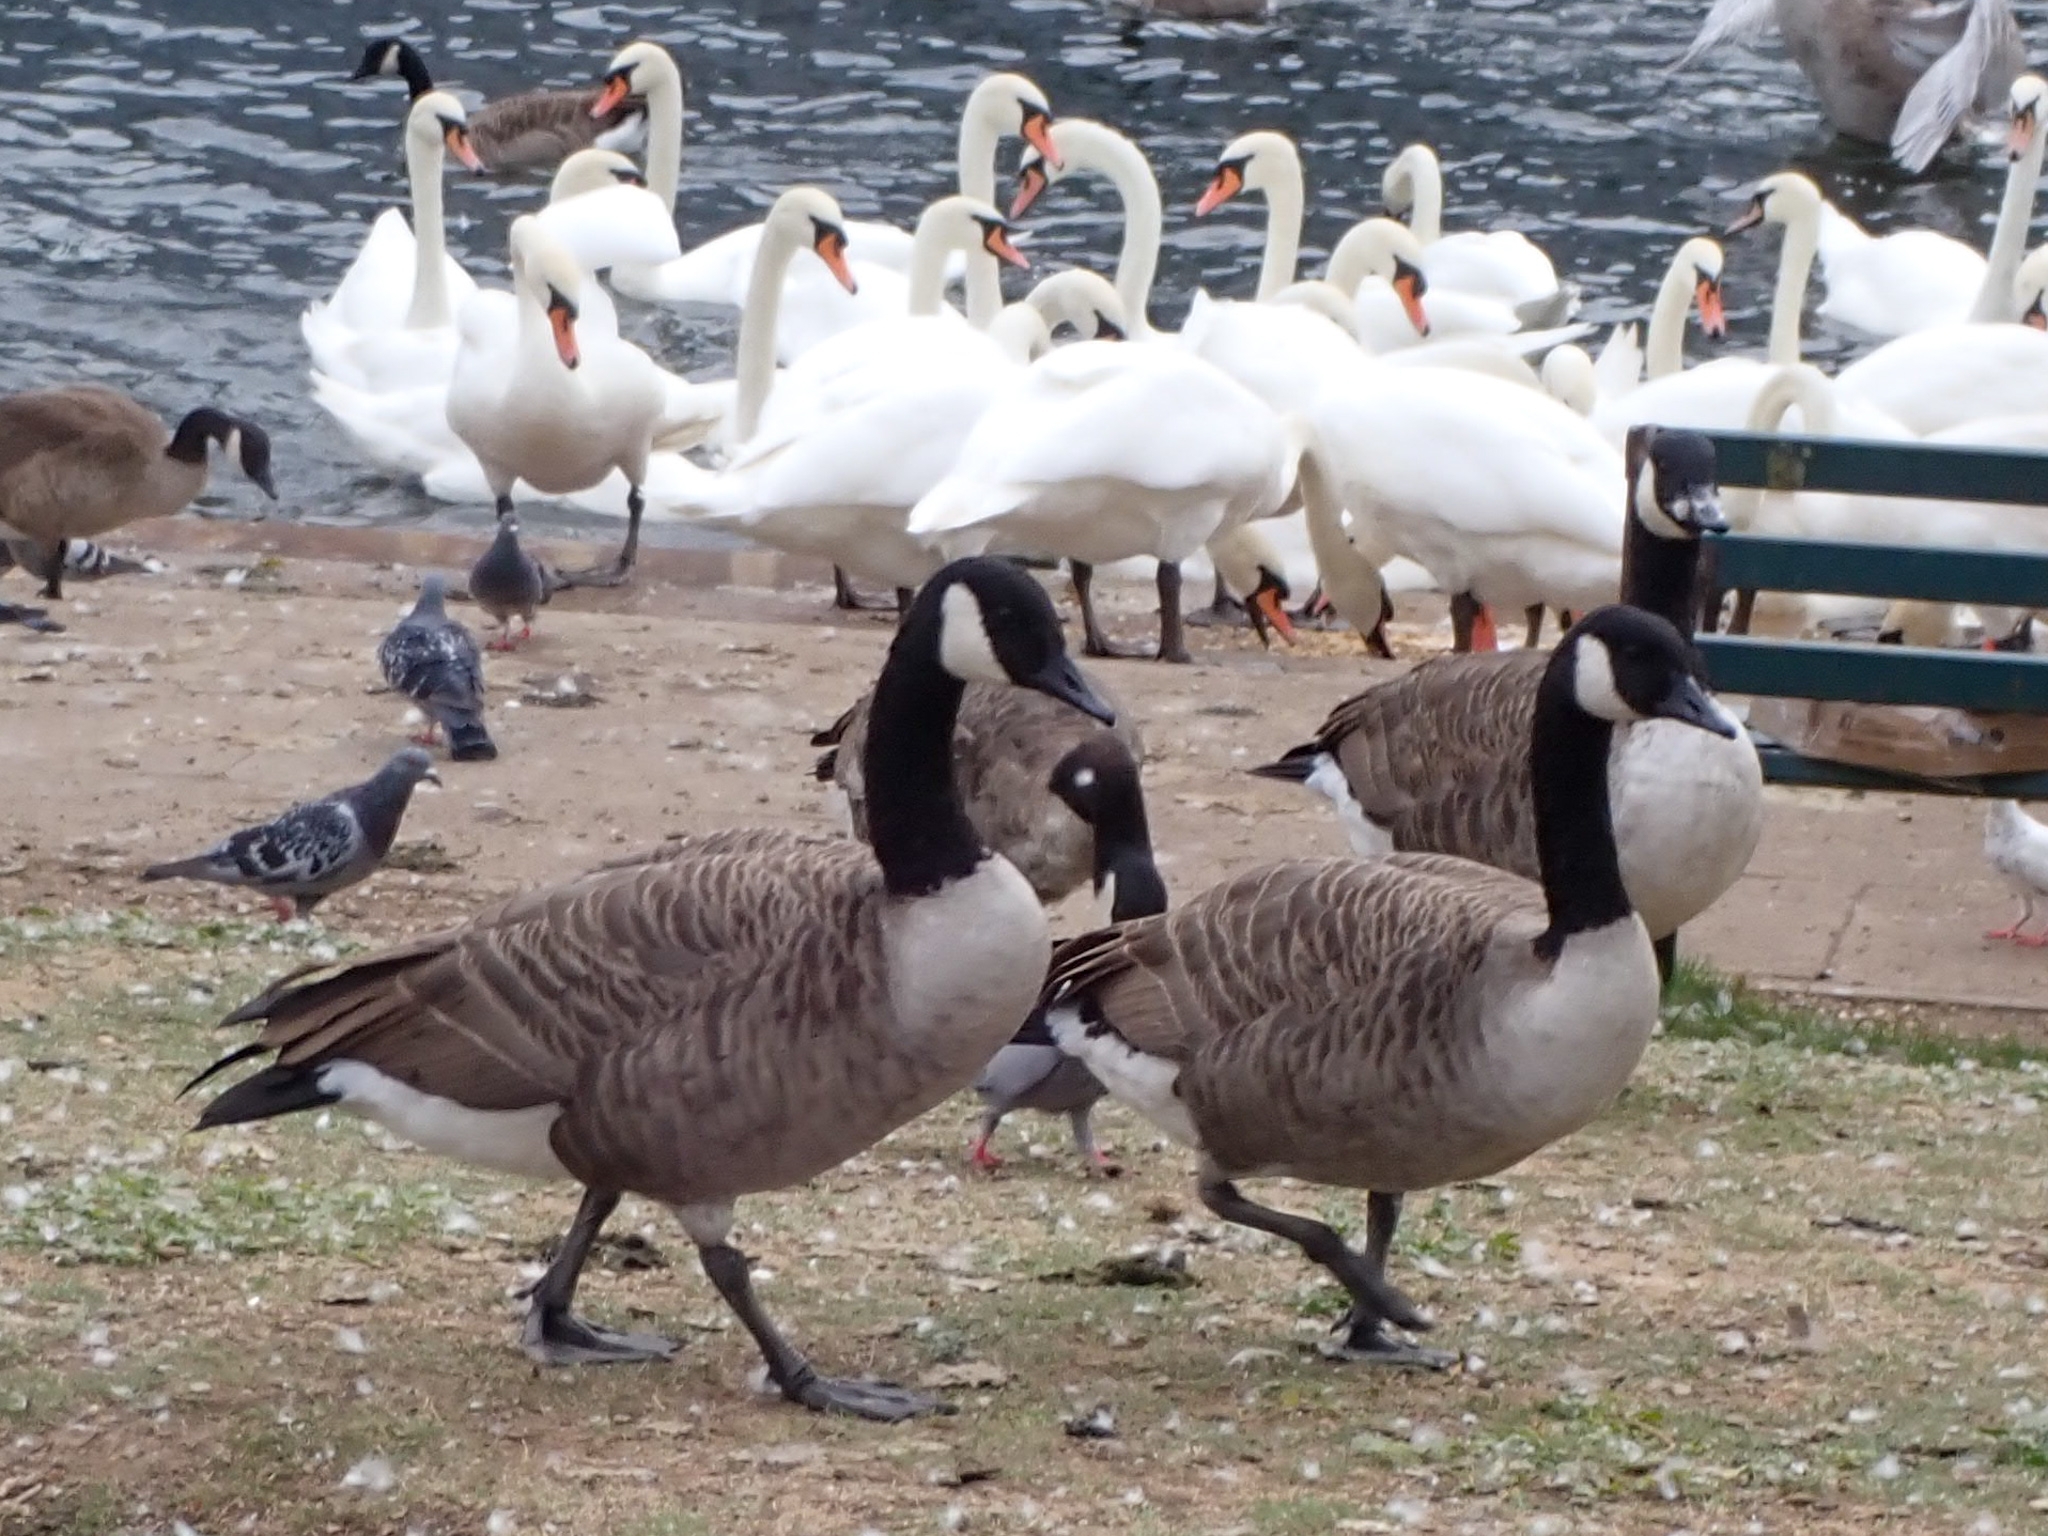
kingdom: Animalia
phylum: Chordata
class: Aves
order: Anseriformes
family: Anatidae
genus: Branta
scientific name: Branta canadensis
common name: Canada goose
